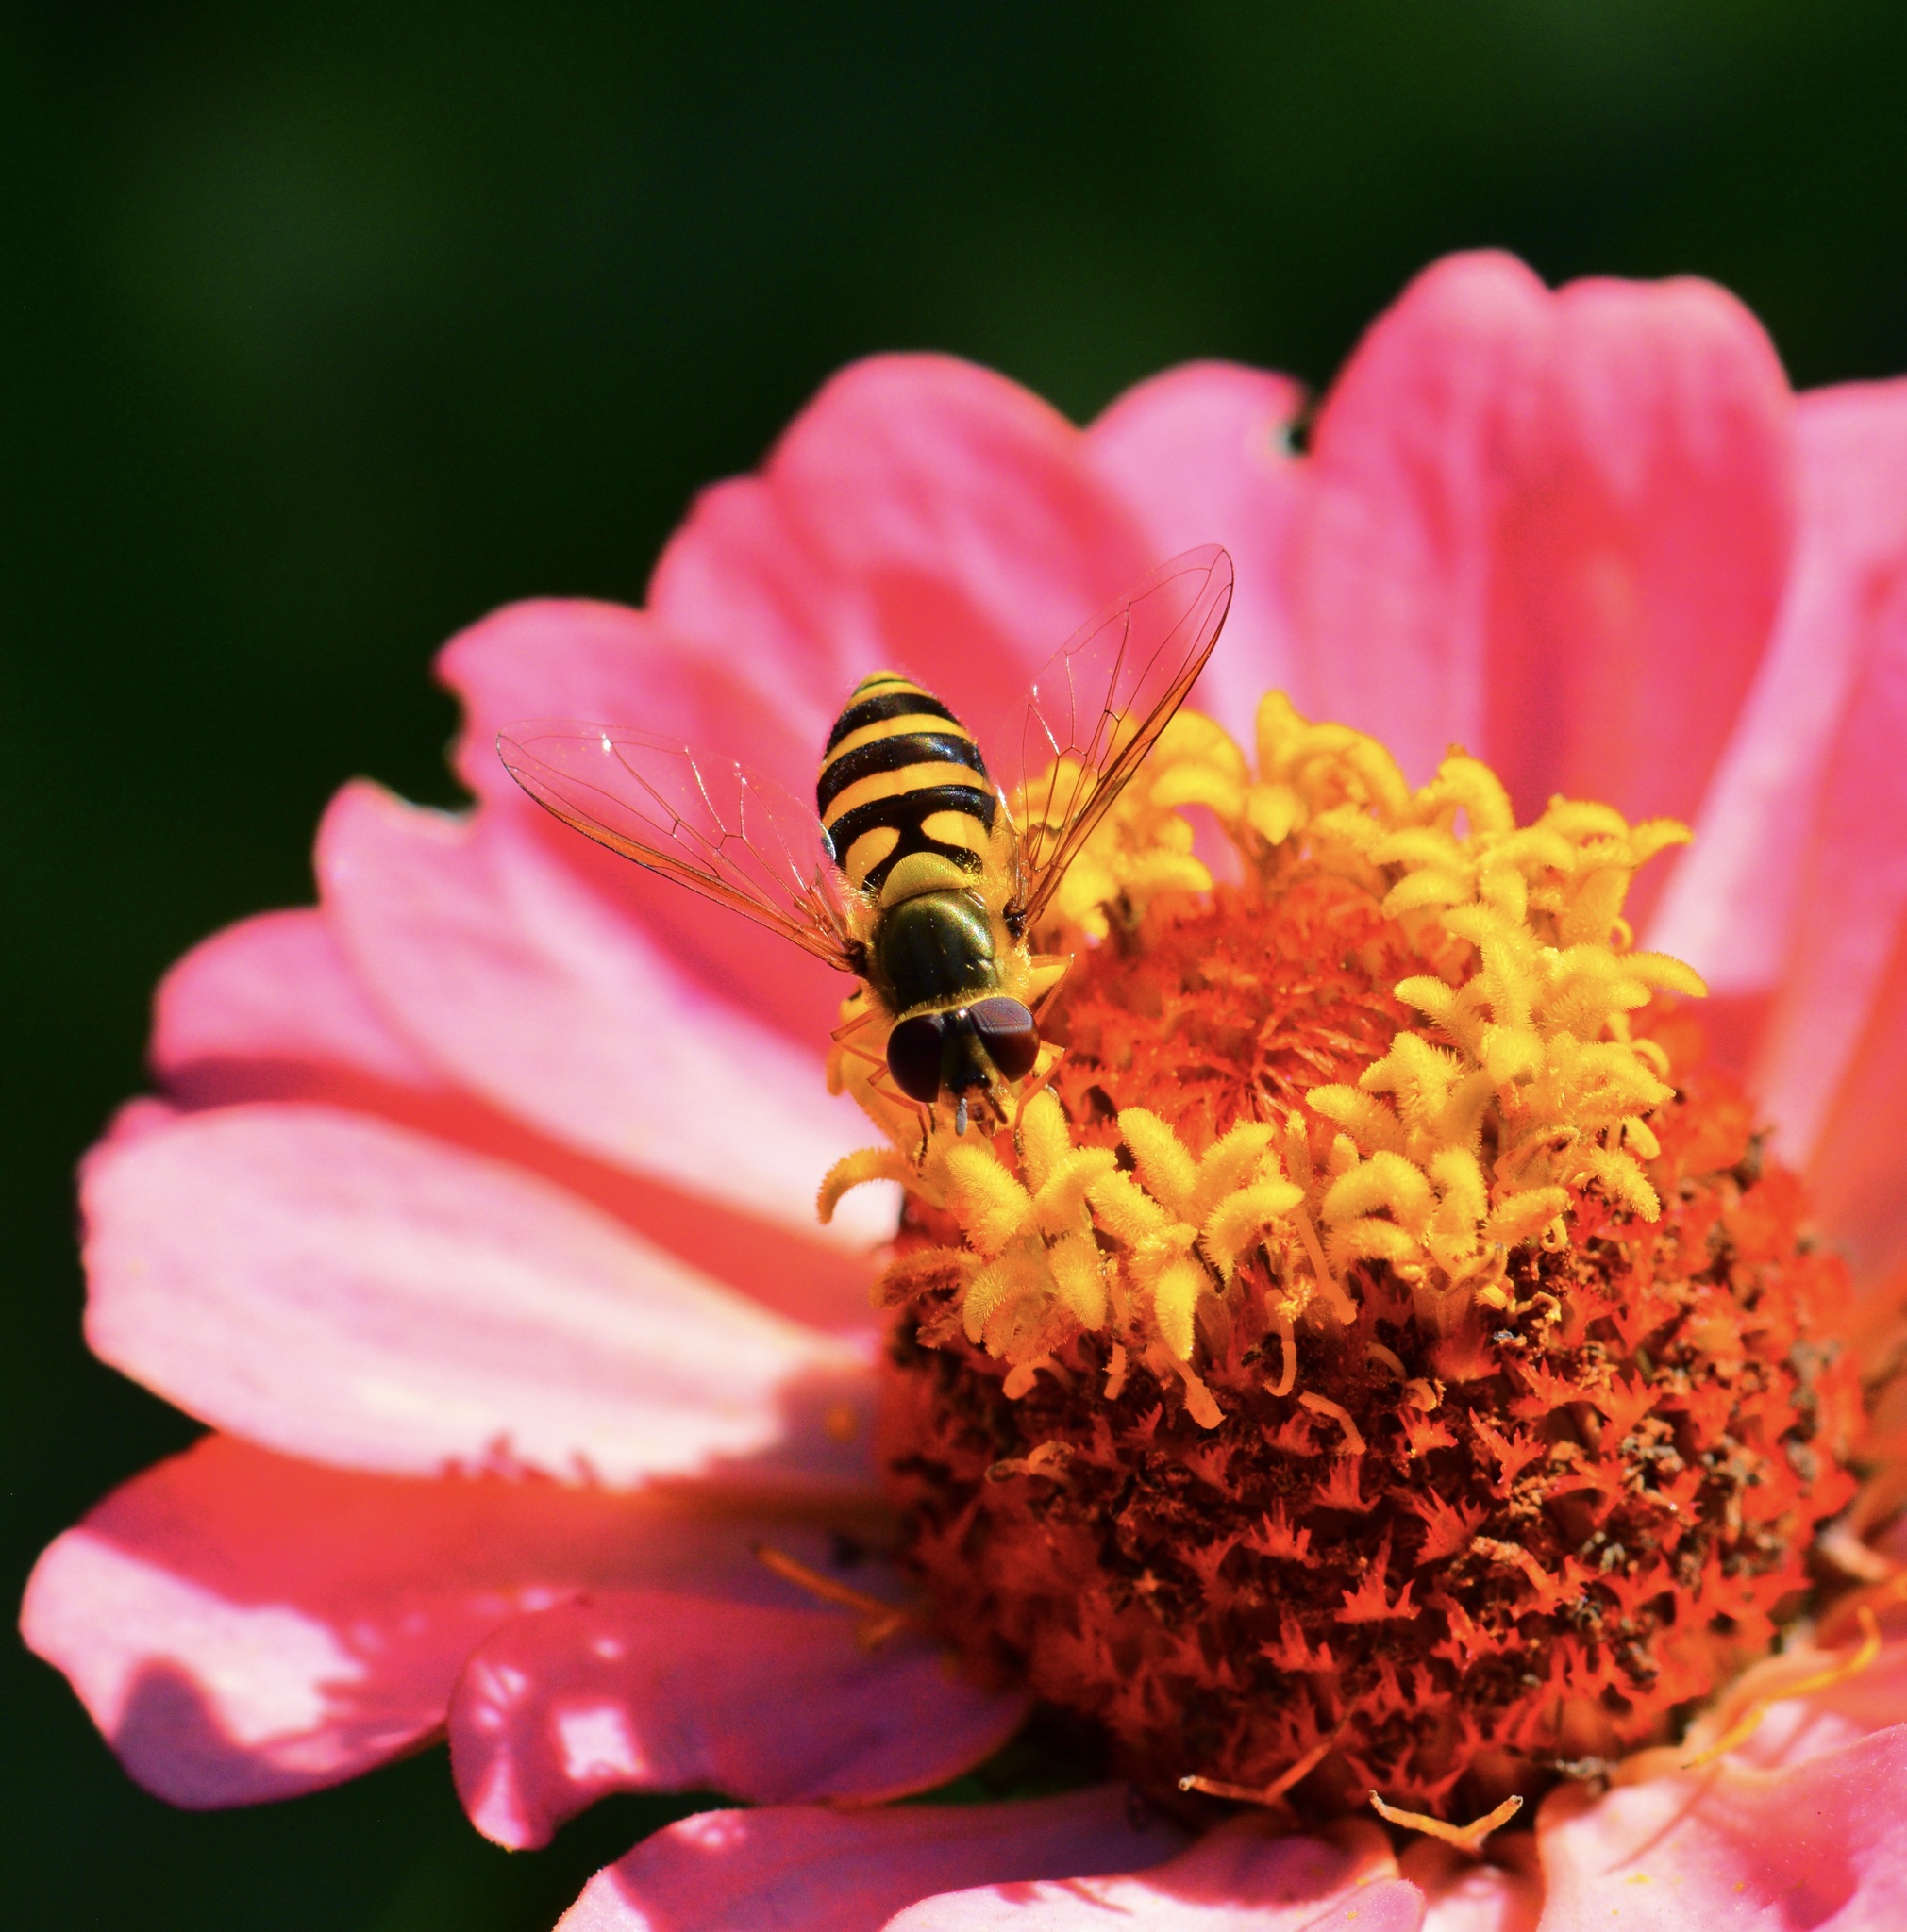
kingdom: Animalia
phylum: Arthropoda
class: Insecta
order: Diptera
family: Syrphidae
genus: Syrphus
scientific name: Syrphus
